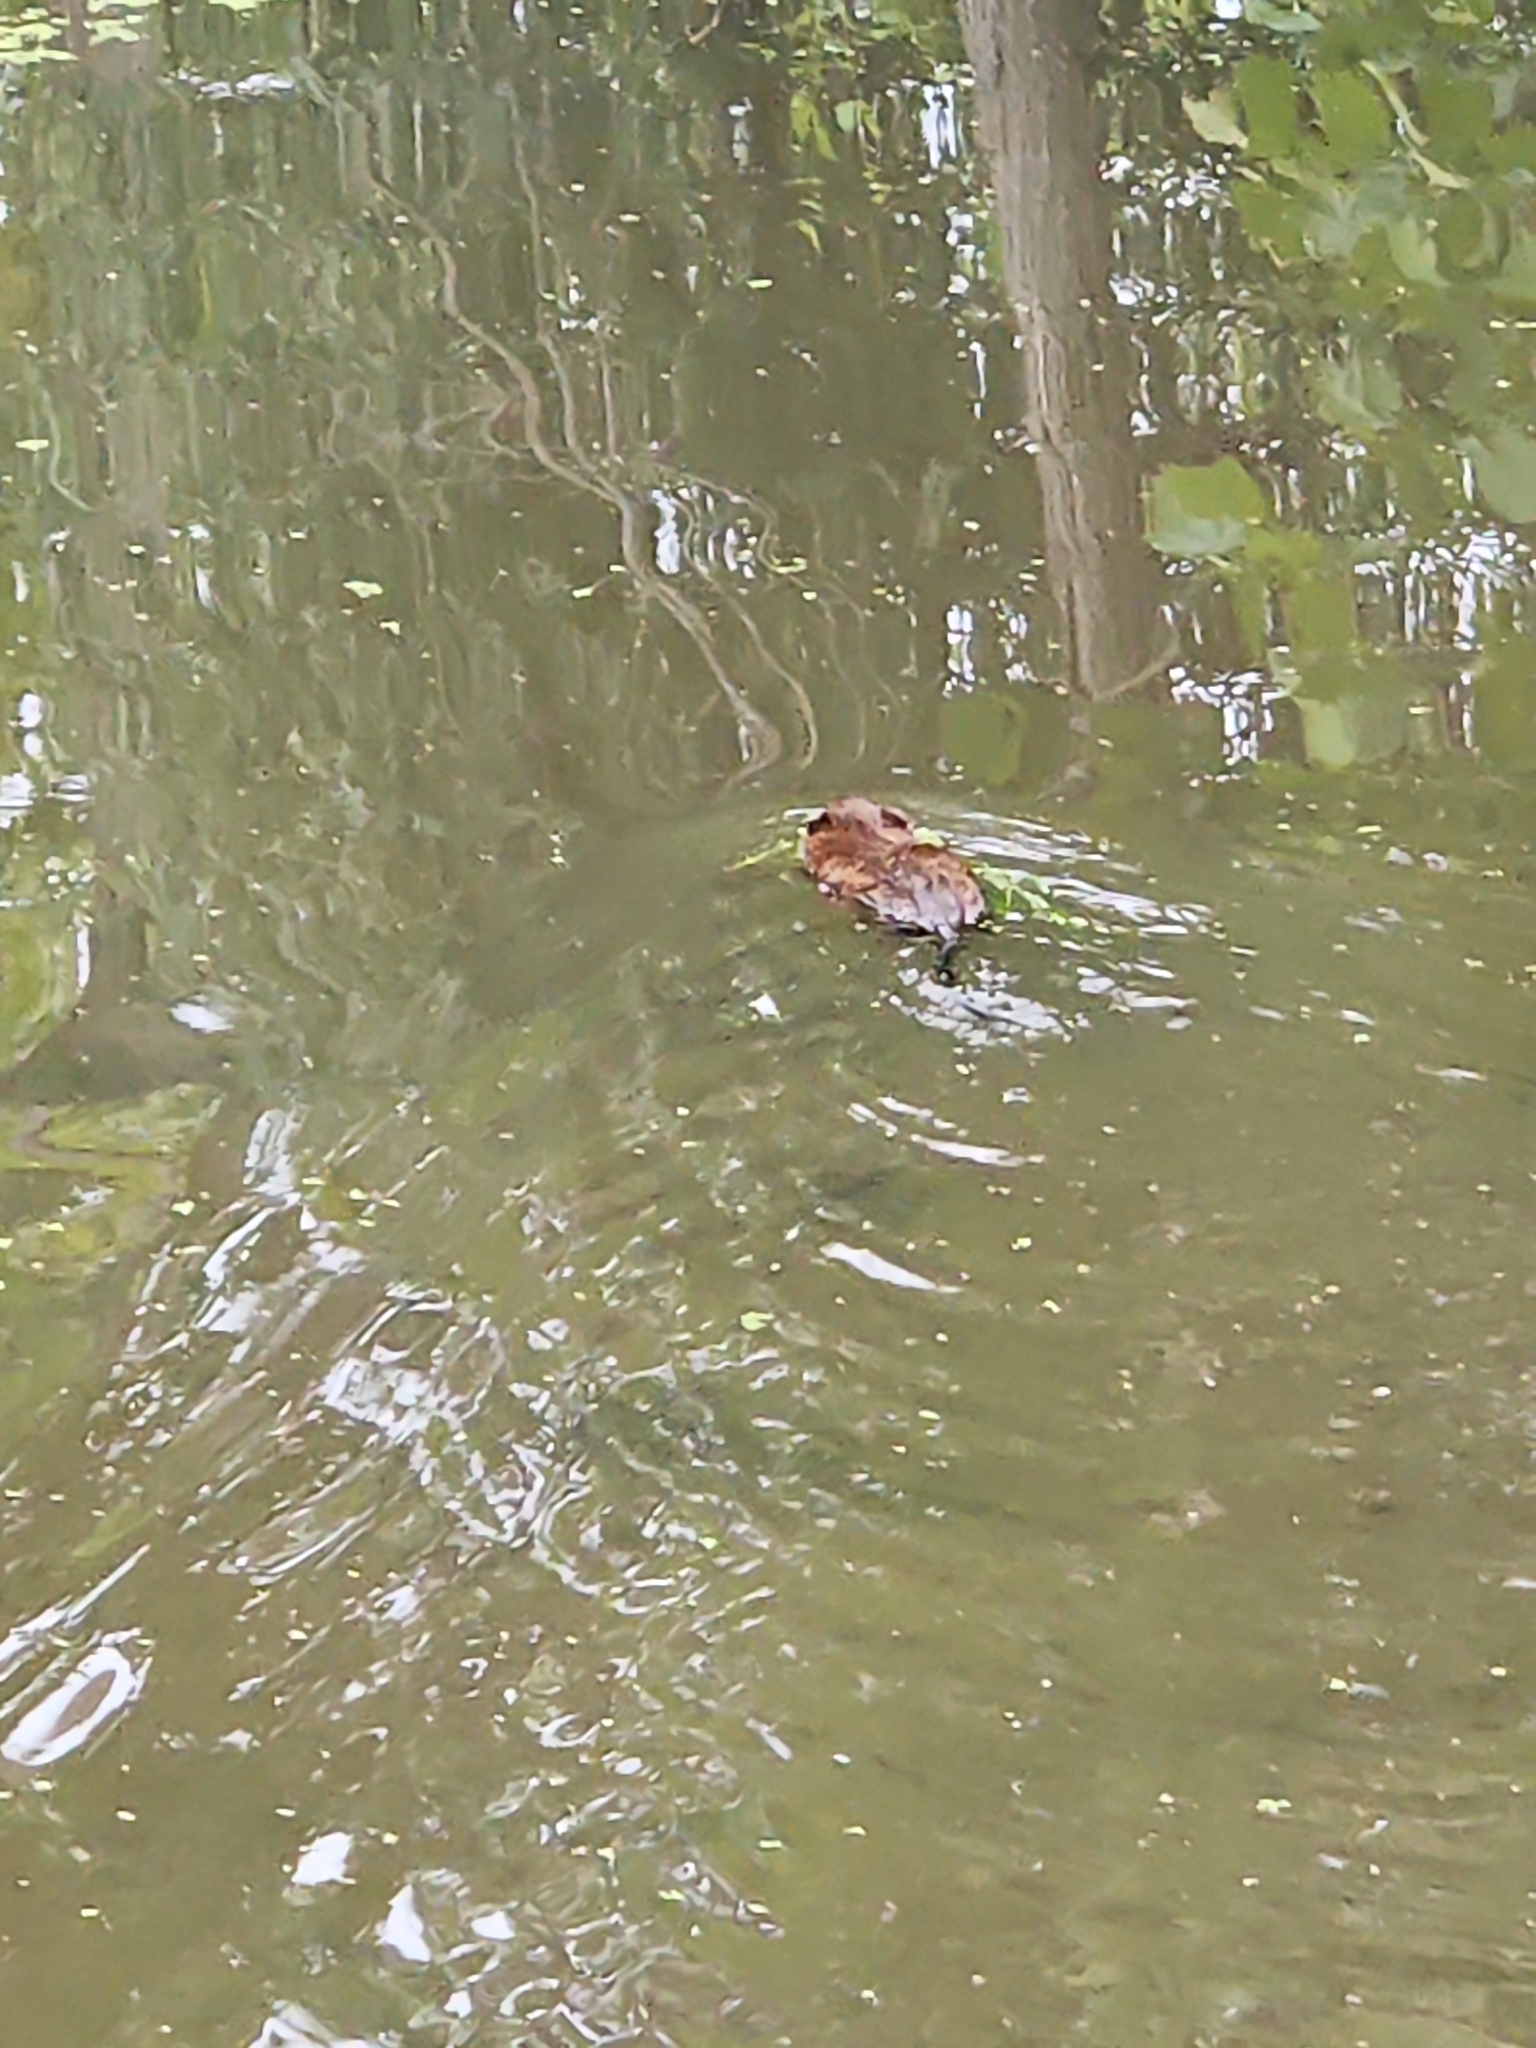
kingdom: Animalia
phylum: Chordata
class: Mammalia
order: Rodentia
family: Cricetidae
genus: Ondatra
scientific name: Ondatra zibethicus
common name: Muskrat
